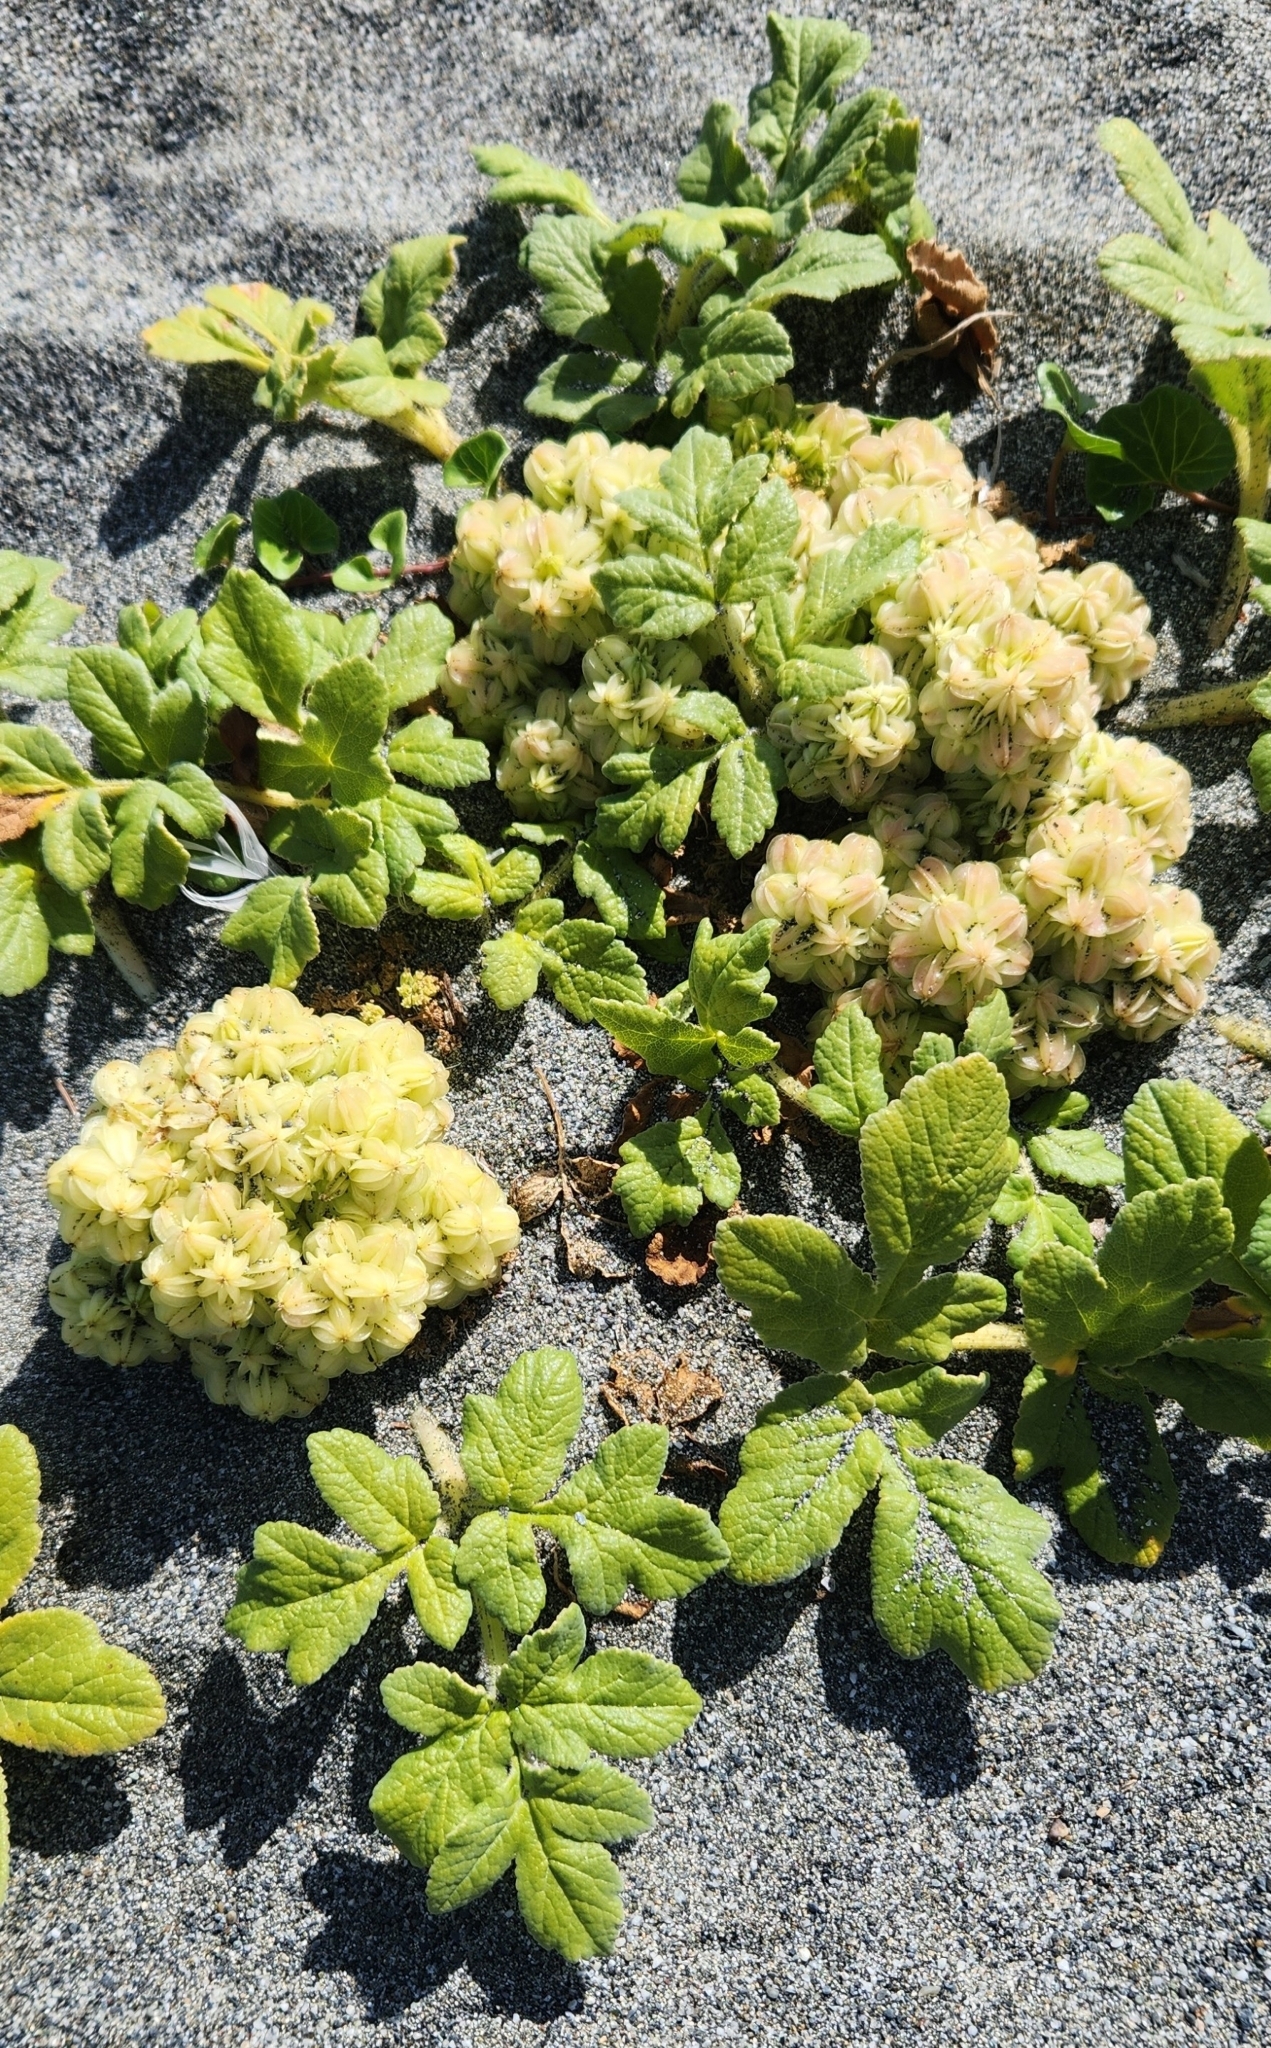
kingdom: Plantae
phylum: Tracheophyta
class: Magnoliopsida
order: Apiales
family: Apiaceae
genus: Angelica
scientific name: Angelica leiocarpa
